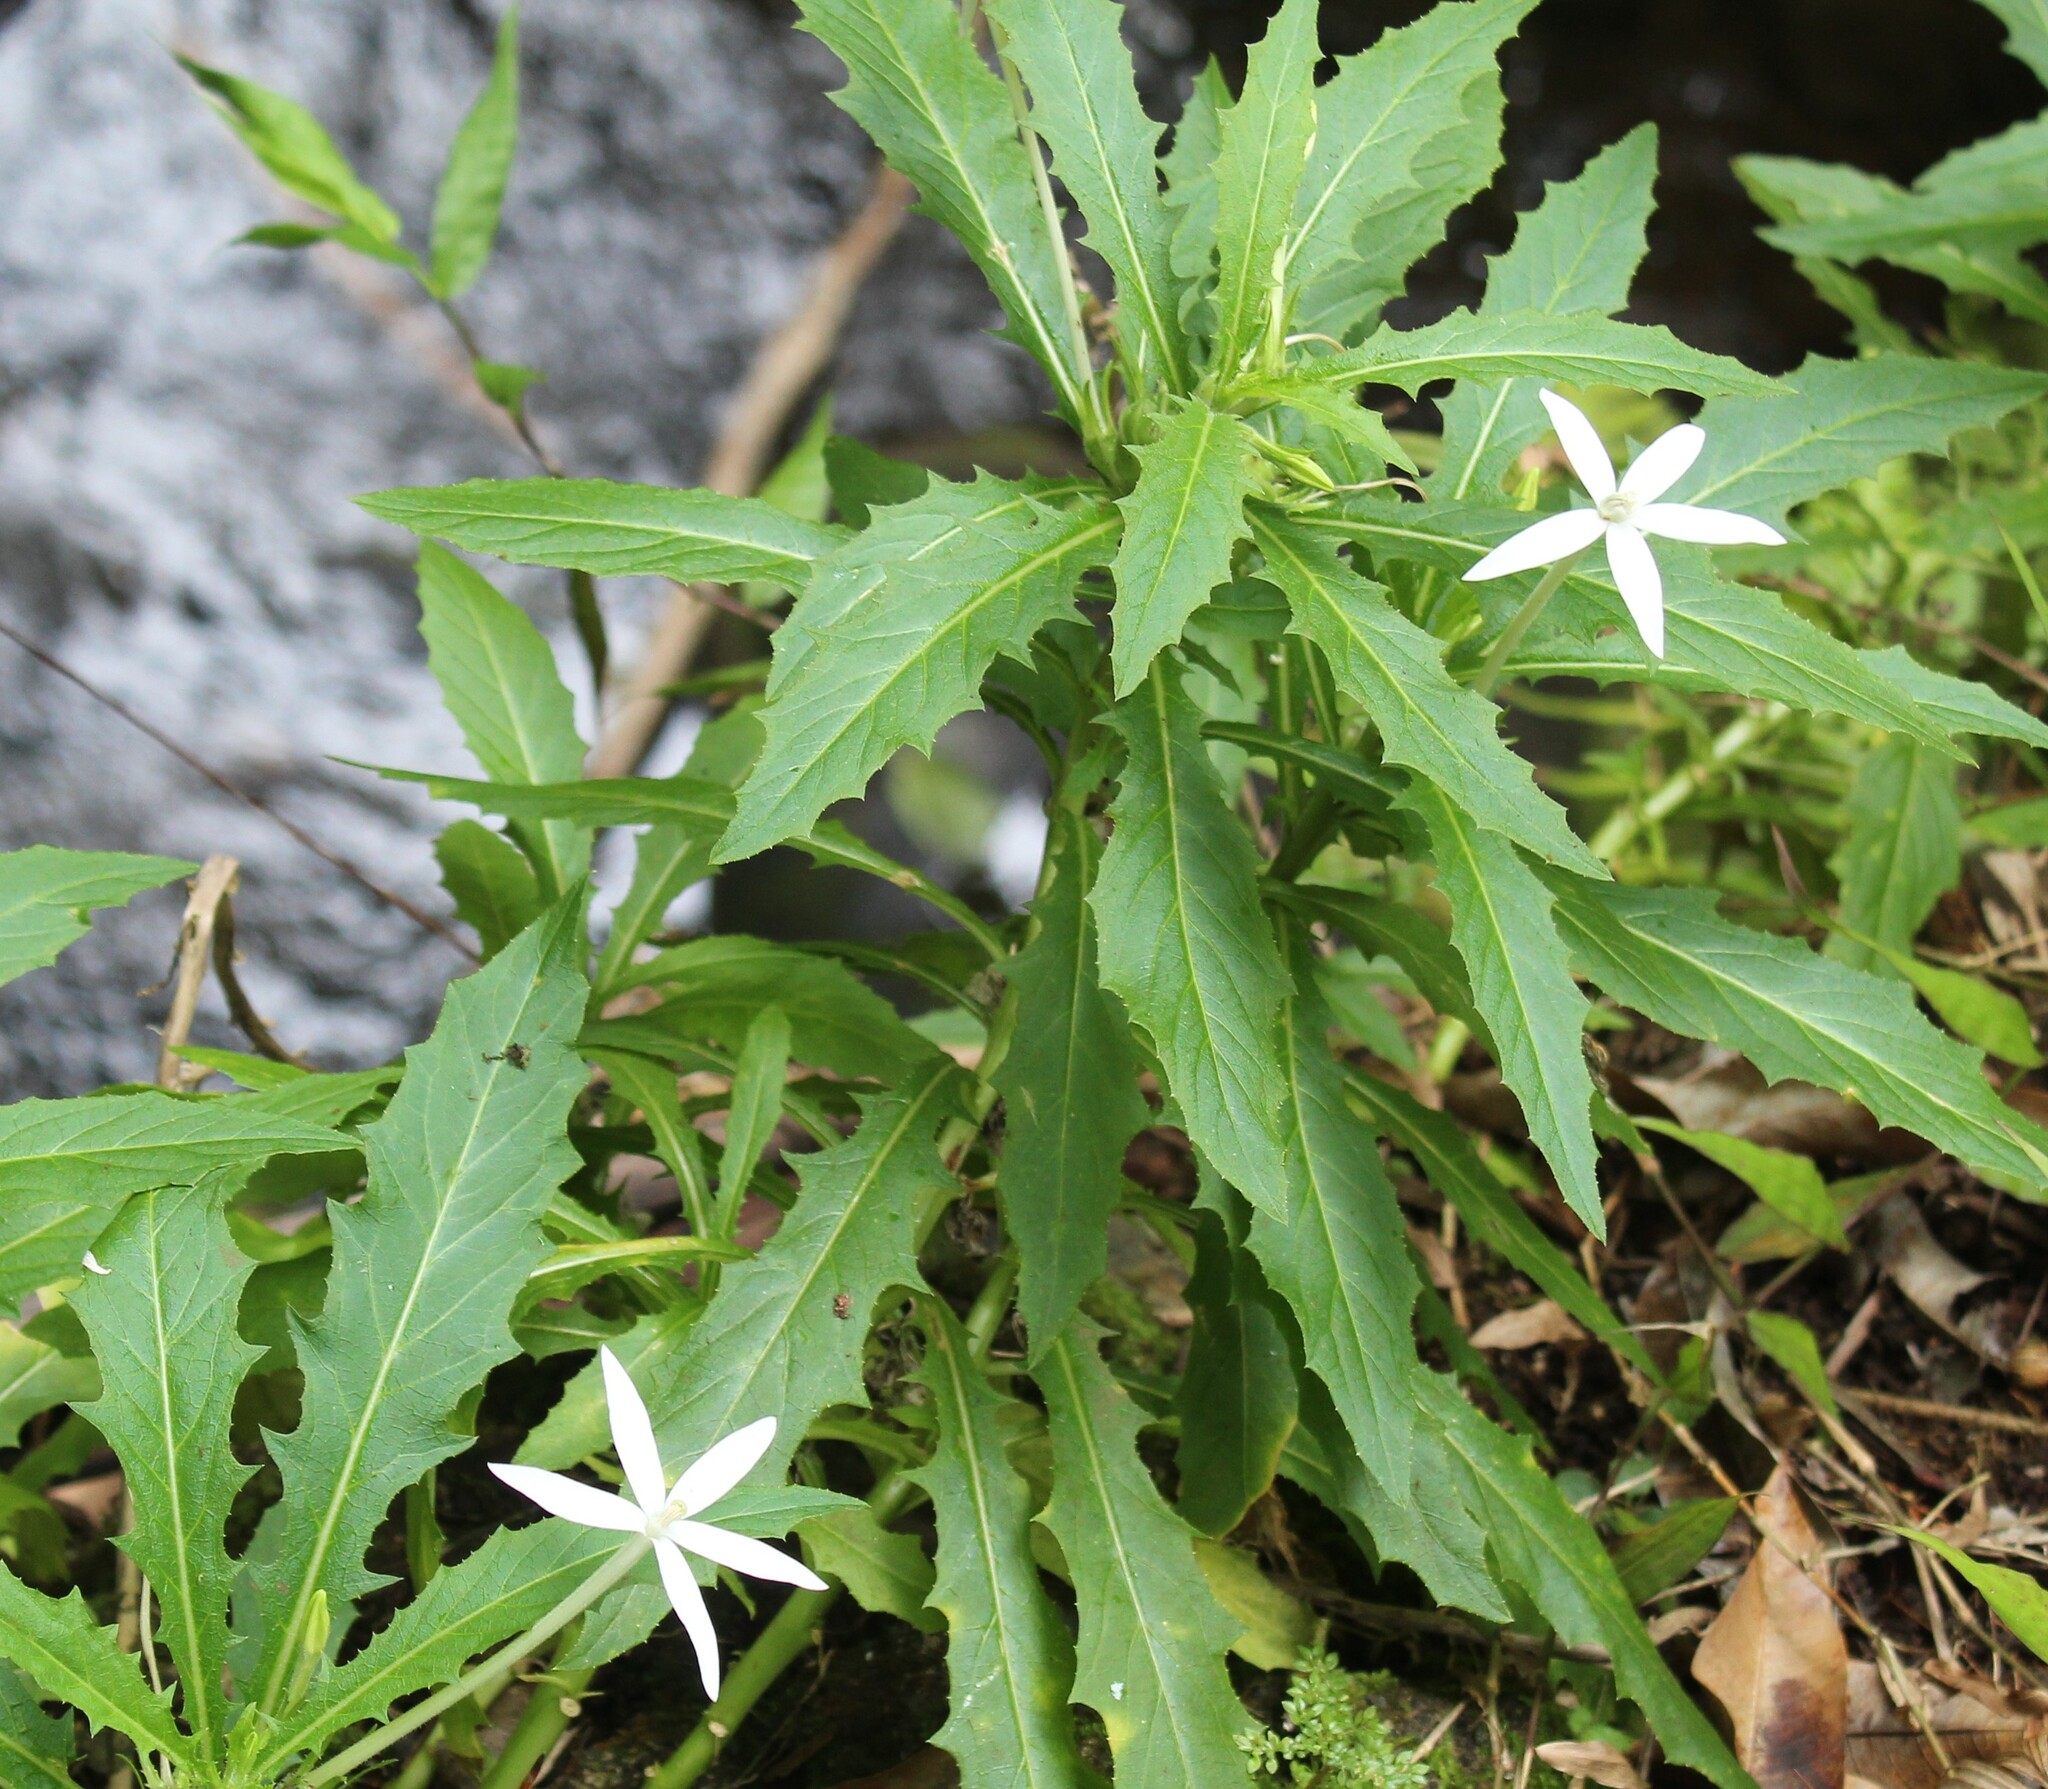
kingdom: Plantae
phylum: Tracheophyta
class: Magnoliopsida
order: Asterales
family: Campanulaceae
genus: Hippobroma
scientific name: Hippobroma longiflora
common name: Madamfate
